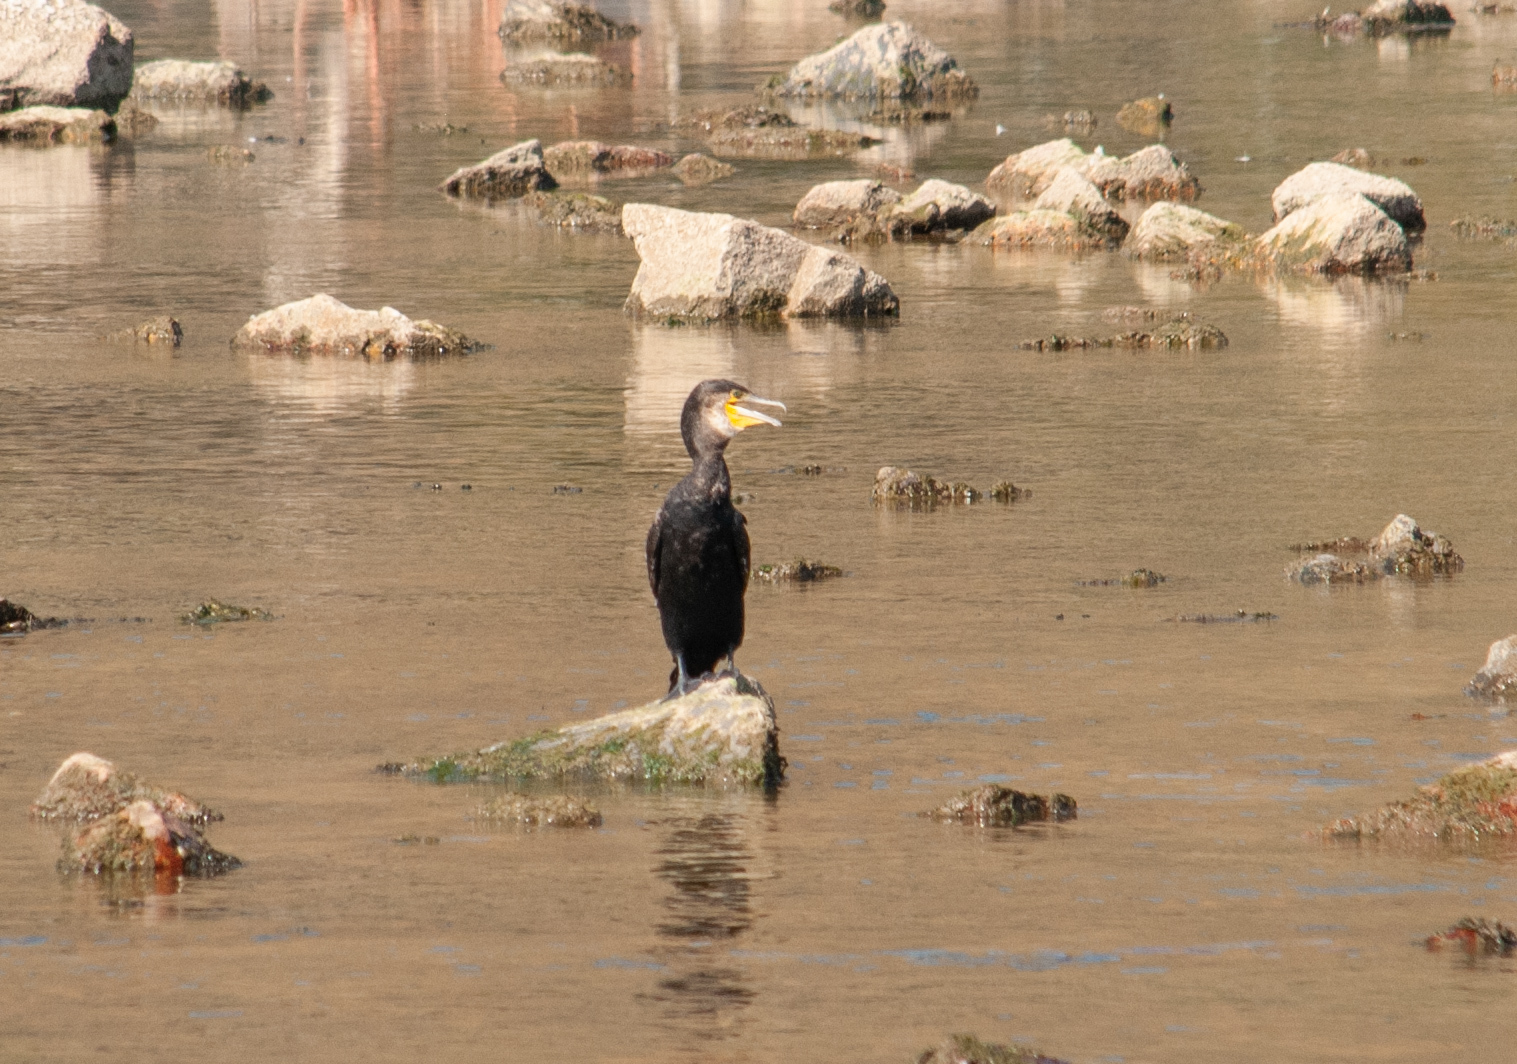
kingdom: Animalia
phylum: Chordata
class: Aves
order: Suliformes
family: Phalacrocoracidae
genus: Phalacrocorax
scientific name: Phalacrocorax carbo
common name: Great cormorant
